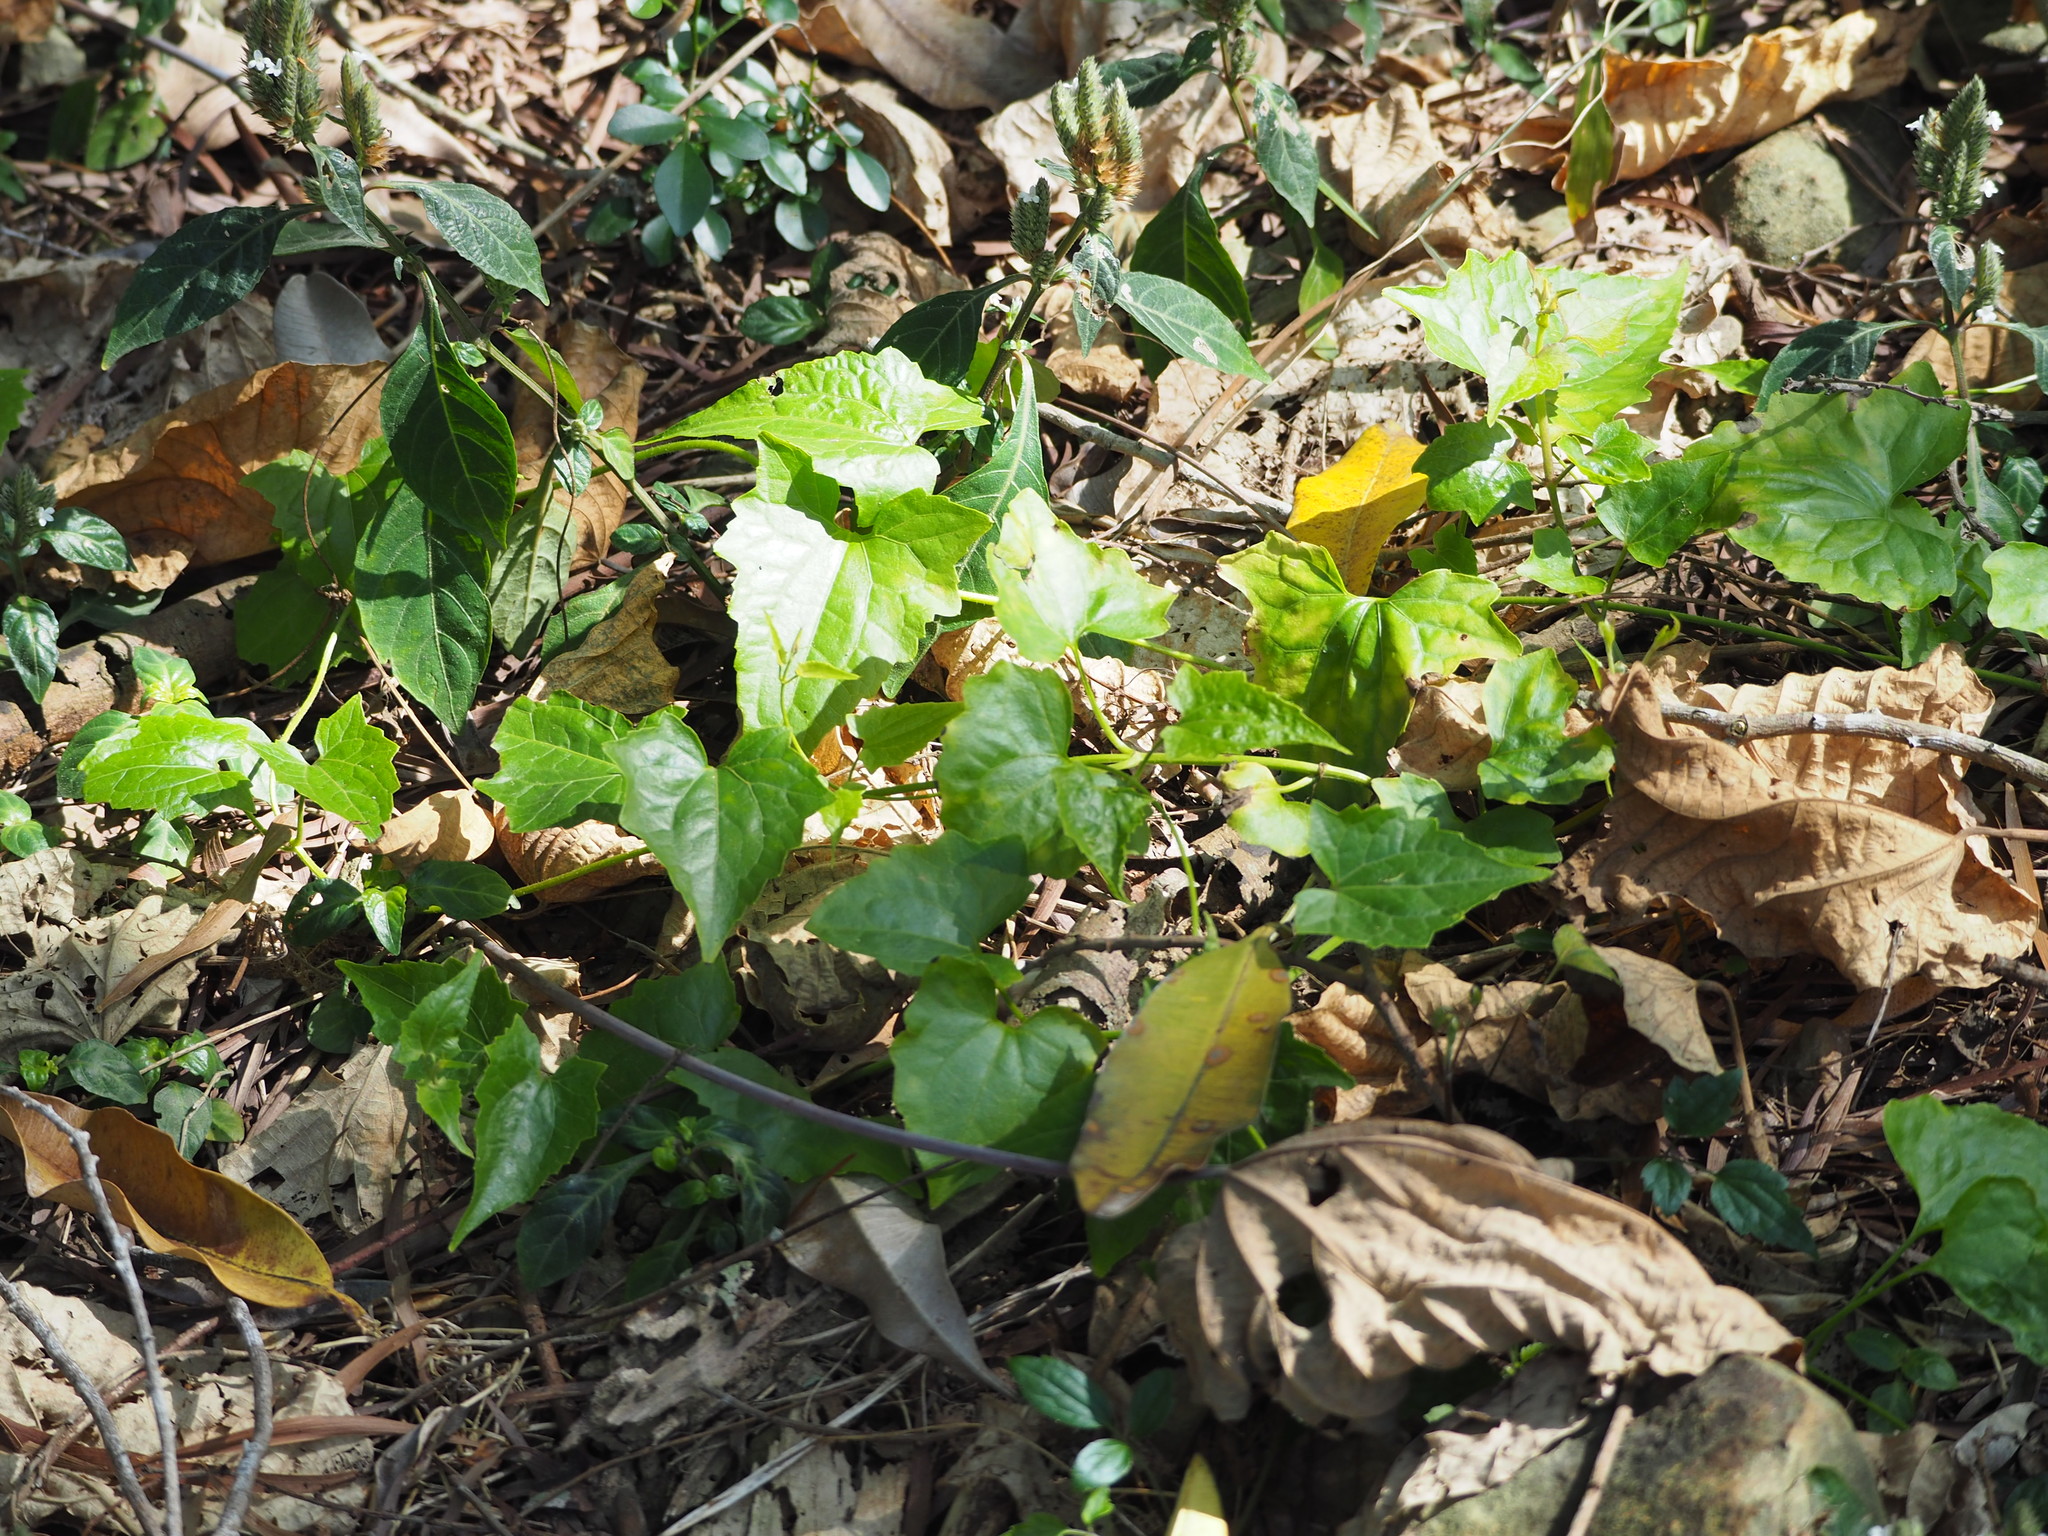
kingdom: Plantae
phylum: Tracheophyta
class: Magnoliopsida
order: Asterales
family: Asteraceae
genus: Mikania
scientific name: Mikania micrantha
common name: Mile-a-minute
